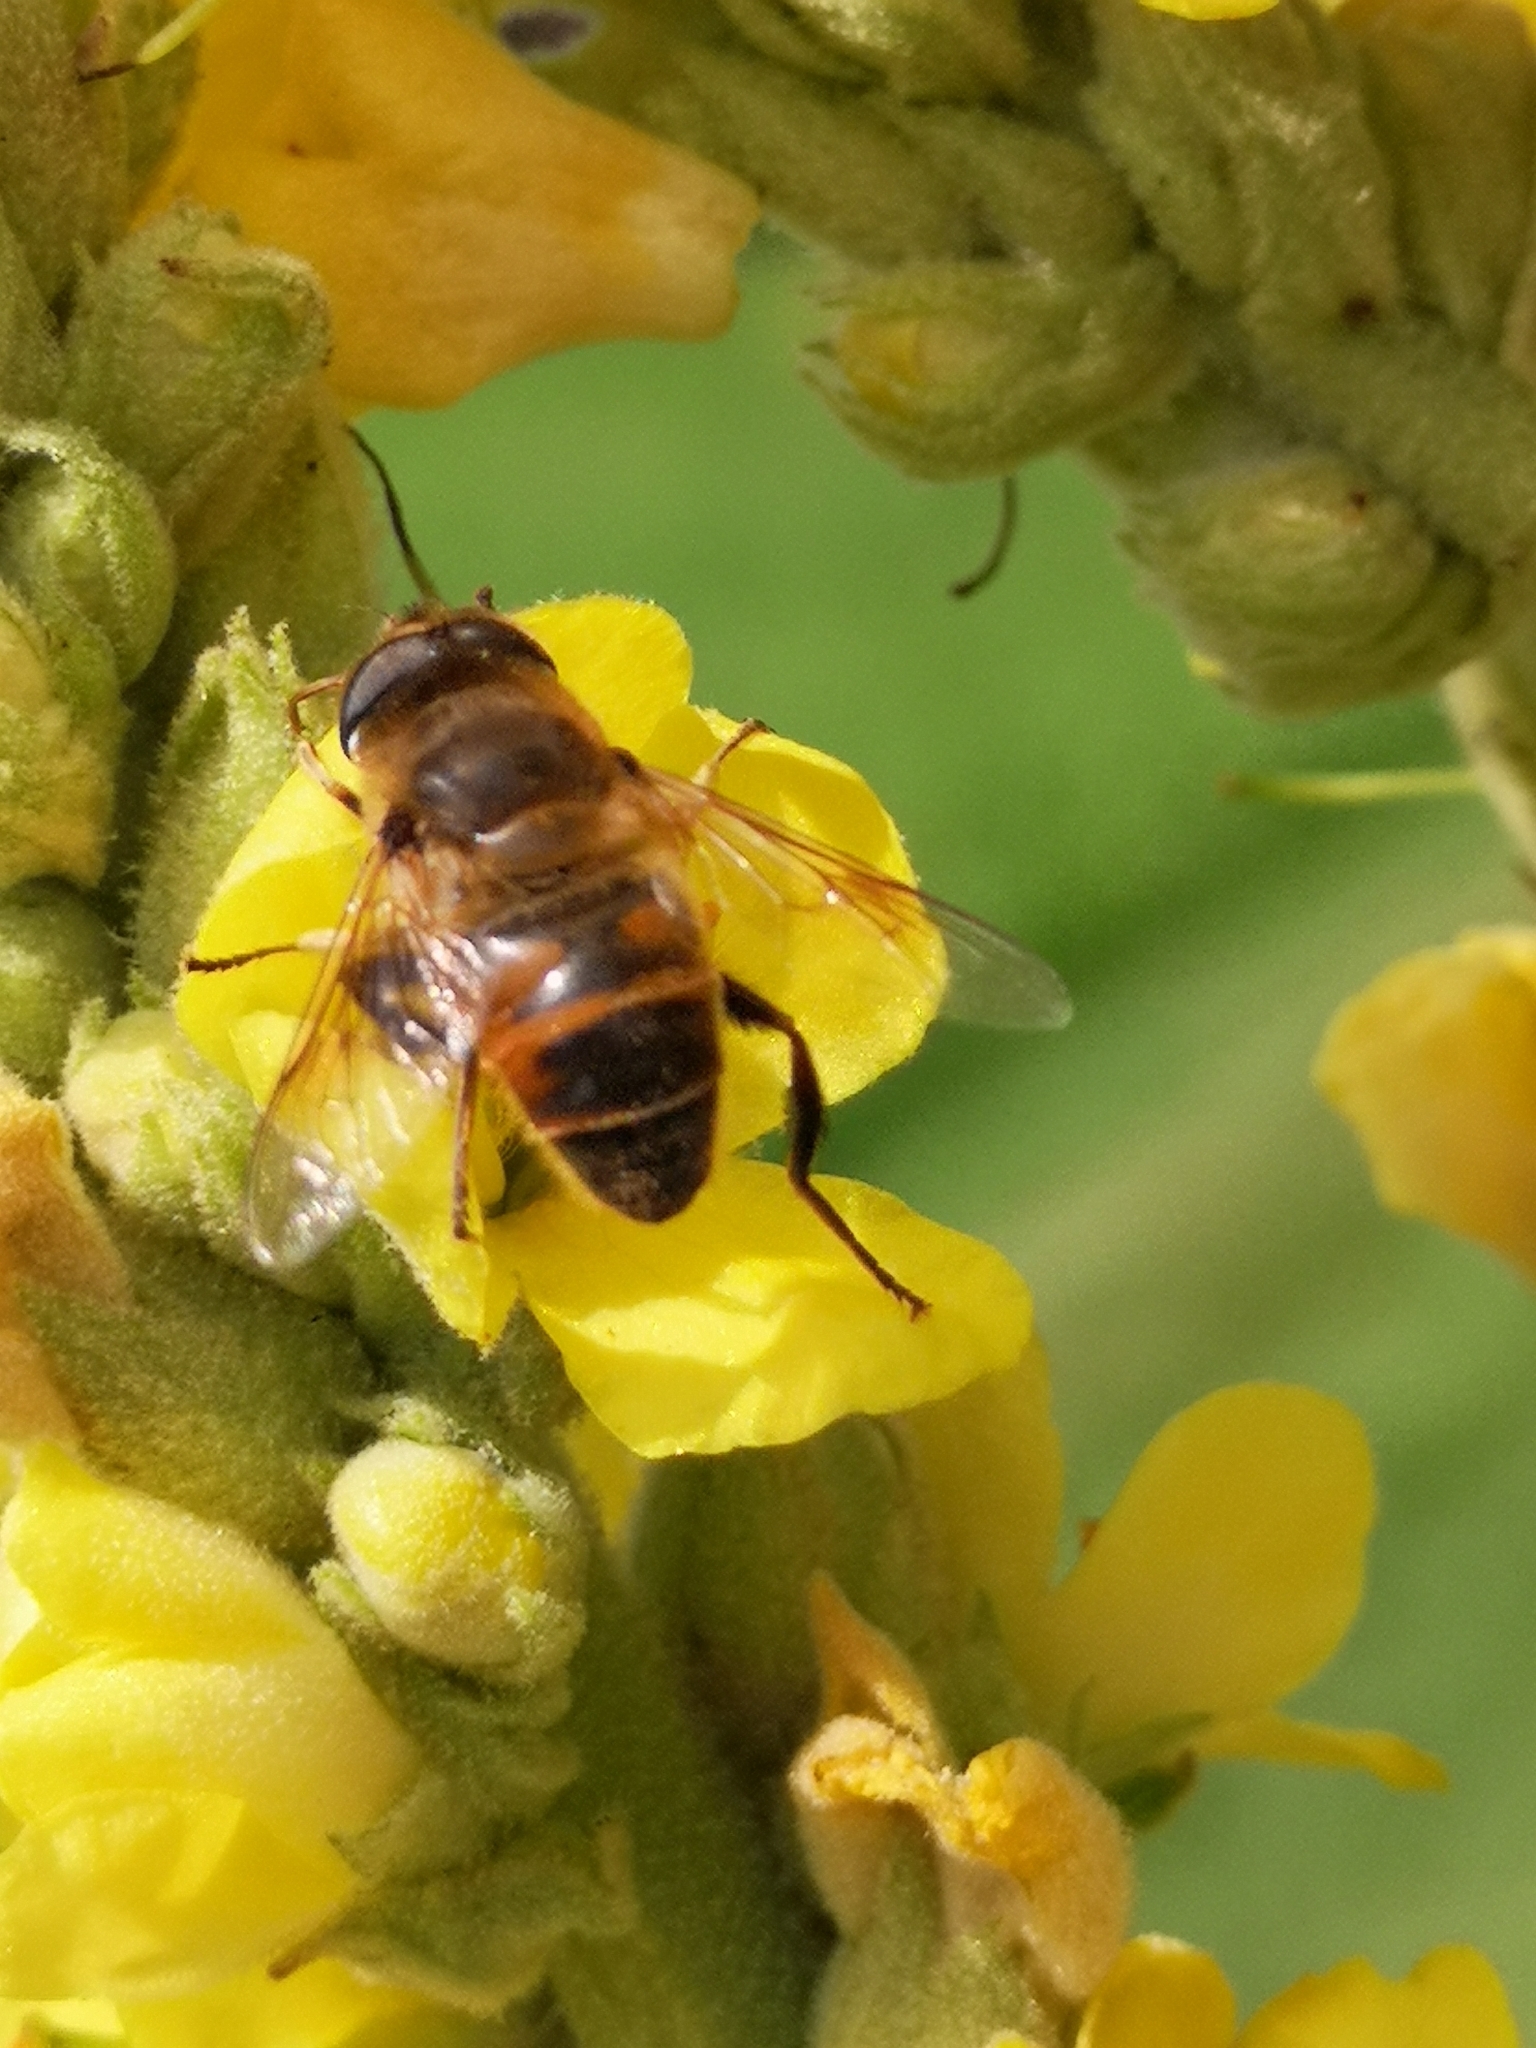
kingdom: Animalia
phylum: Arthropoda
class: Insecta
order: Diptera
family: Syrphidae
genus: Eristalis
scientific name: Eristalis tenax
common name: Drone fly
